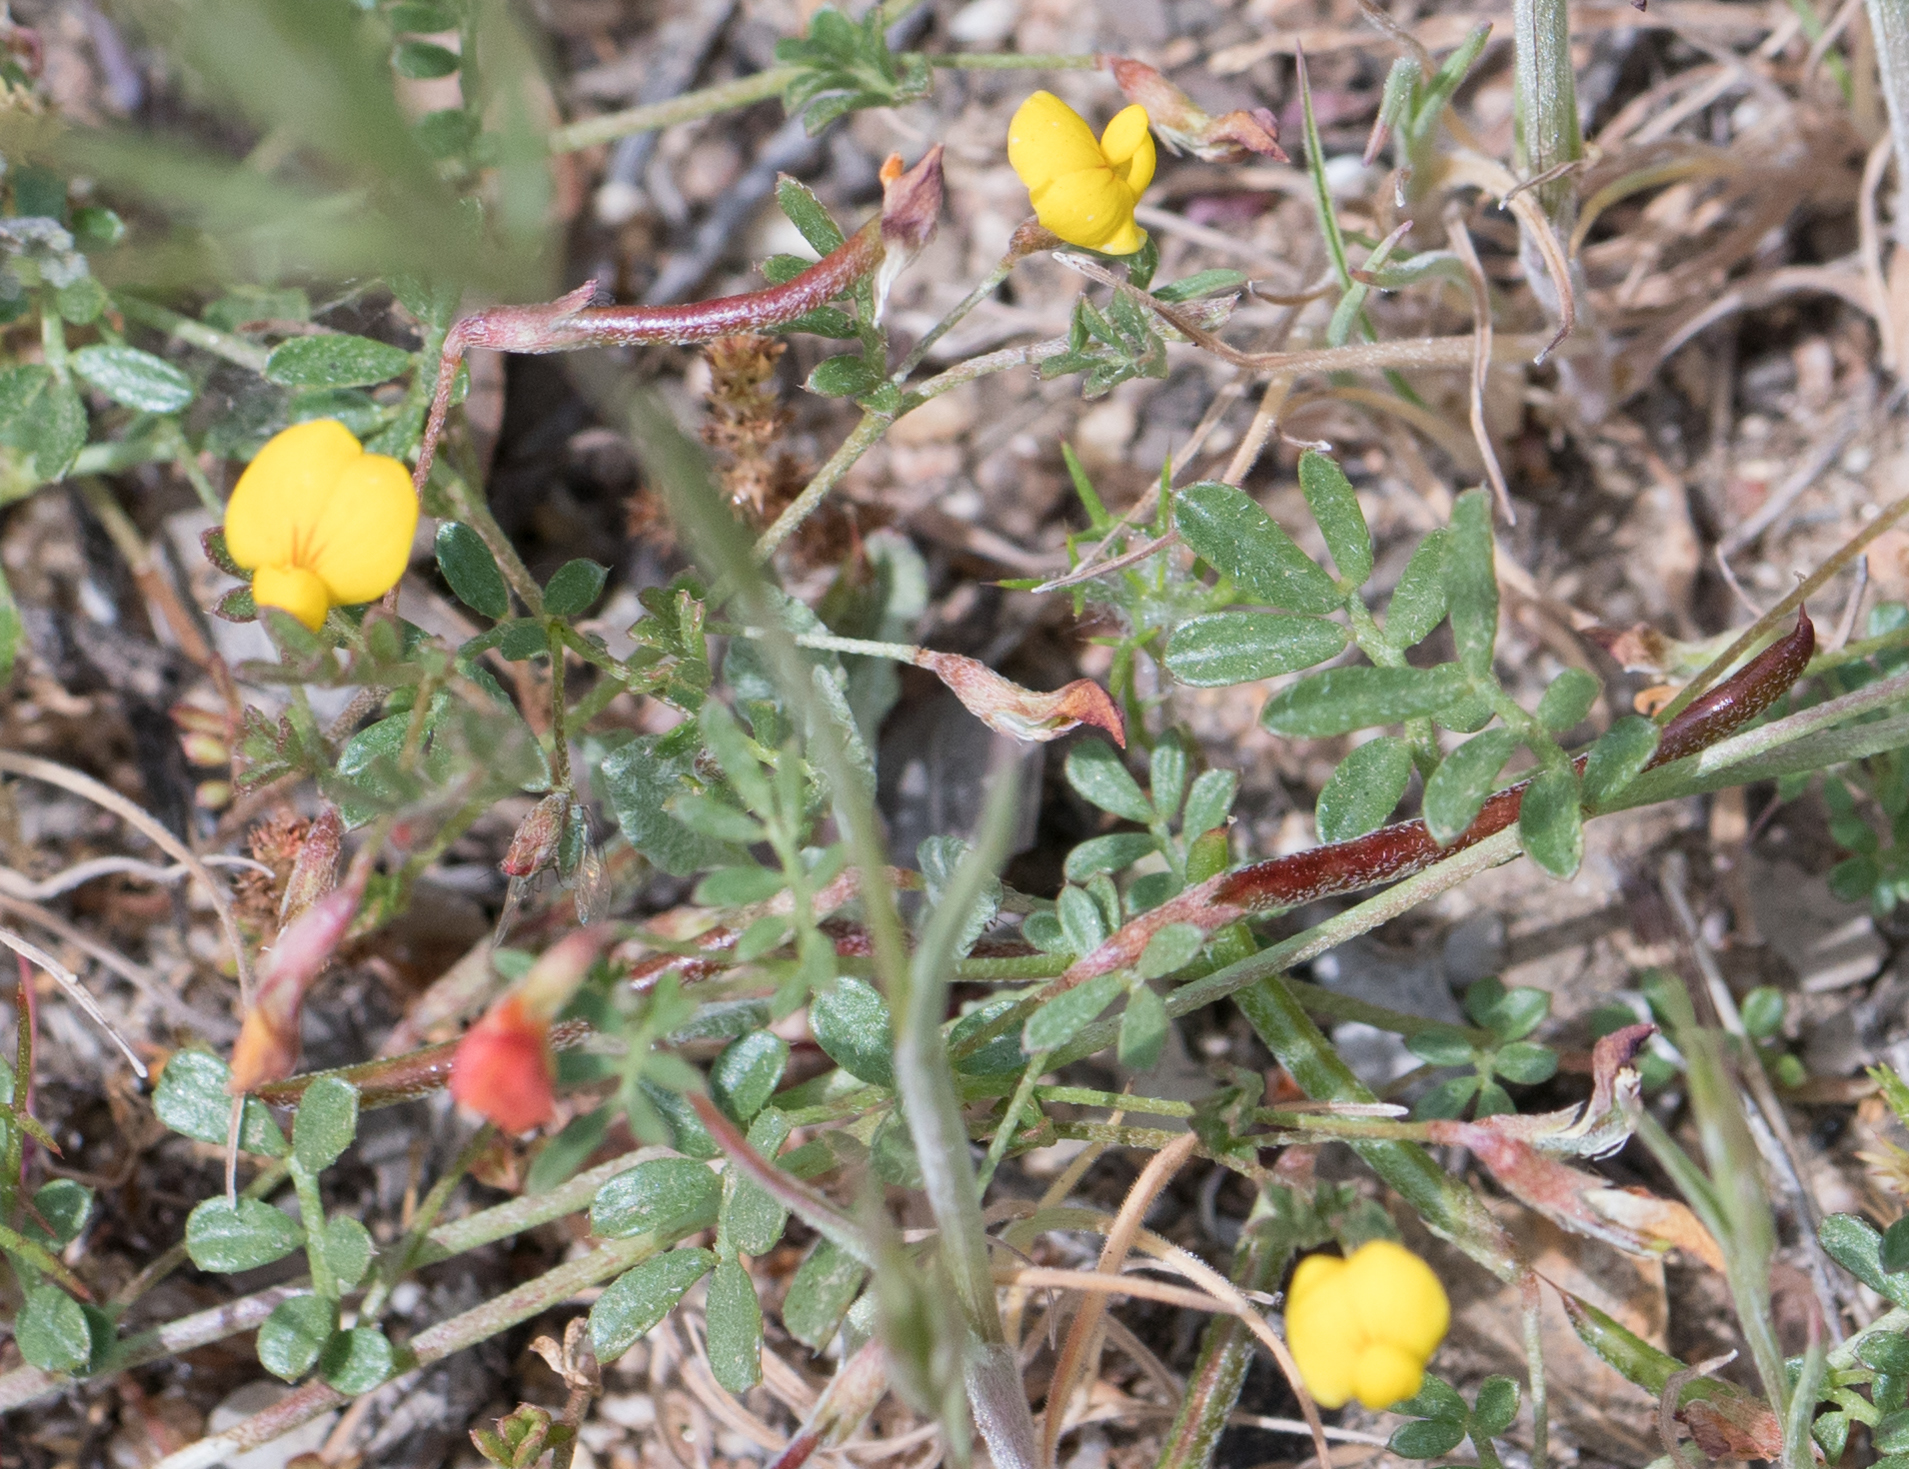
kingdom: Plantae
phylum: Tracheophyta
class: Magnoliopsida
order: Fabales
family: Fabaceae
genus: Acmispon
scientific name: Acmispon strigosus
